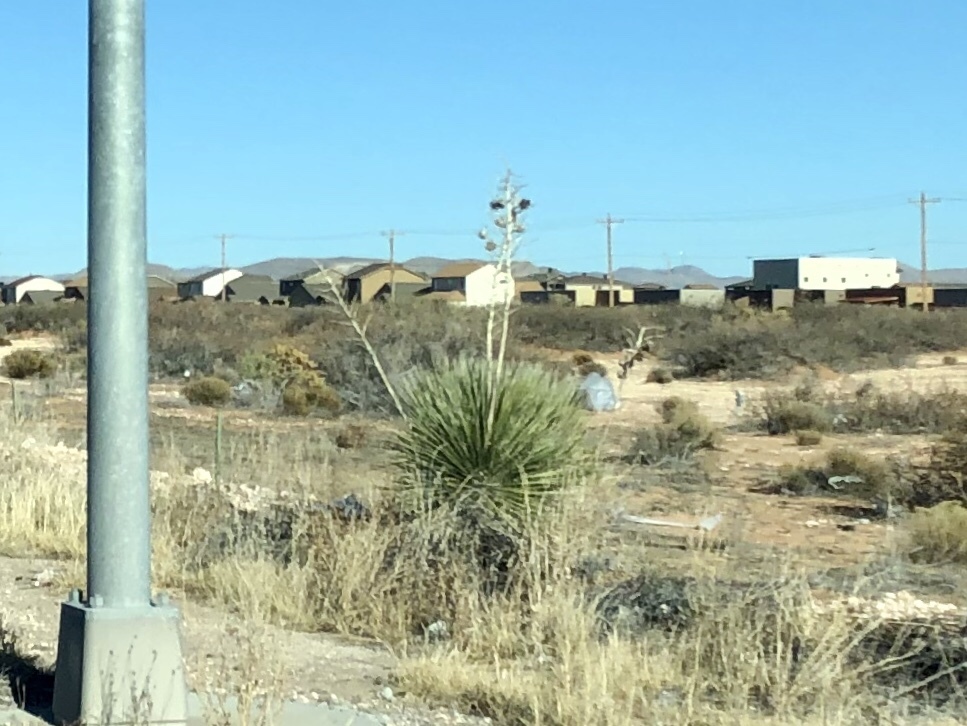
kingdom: Plantae
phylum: Tracheophyta
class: Liliopsida
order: Asparagales
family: Asparagaceae
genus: Yucca
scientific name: Yucca elata
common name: Palmella
